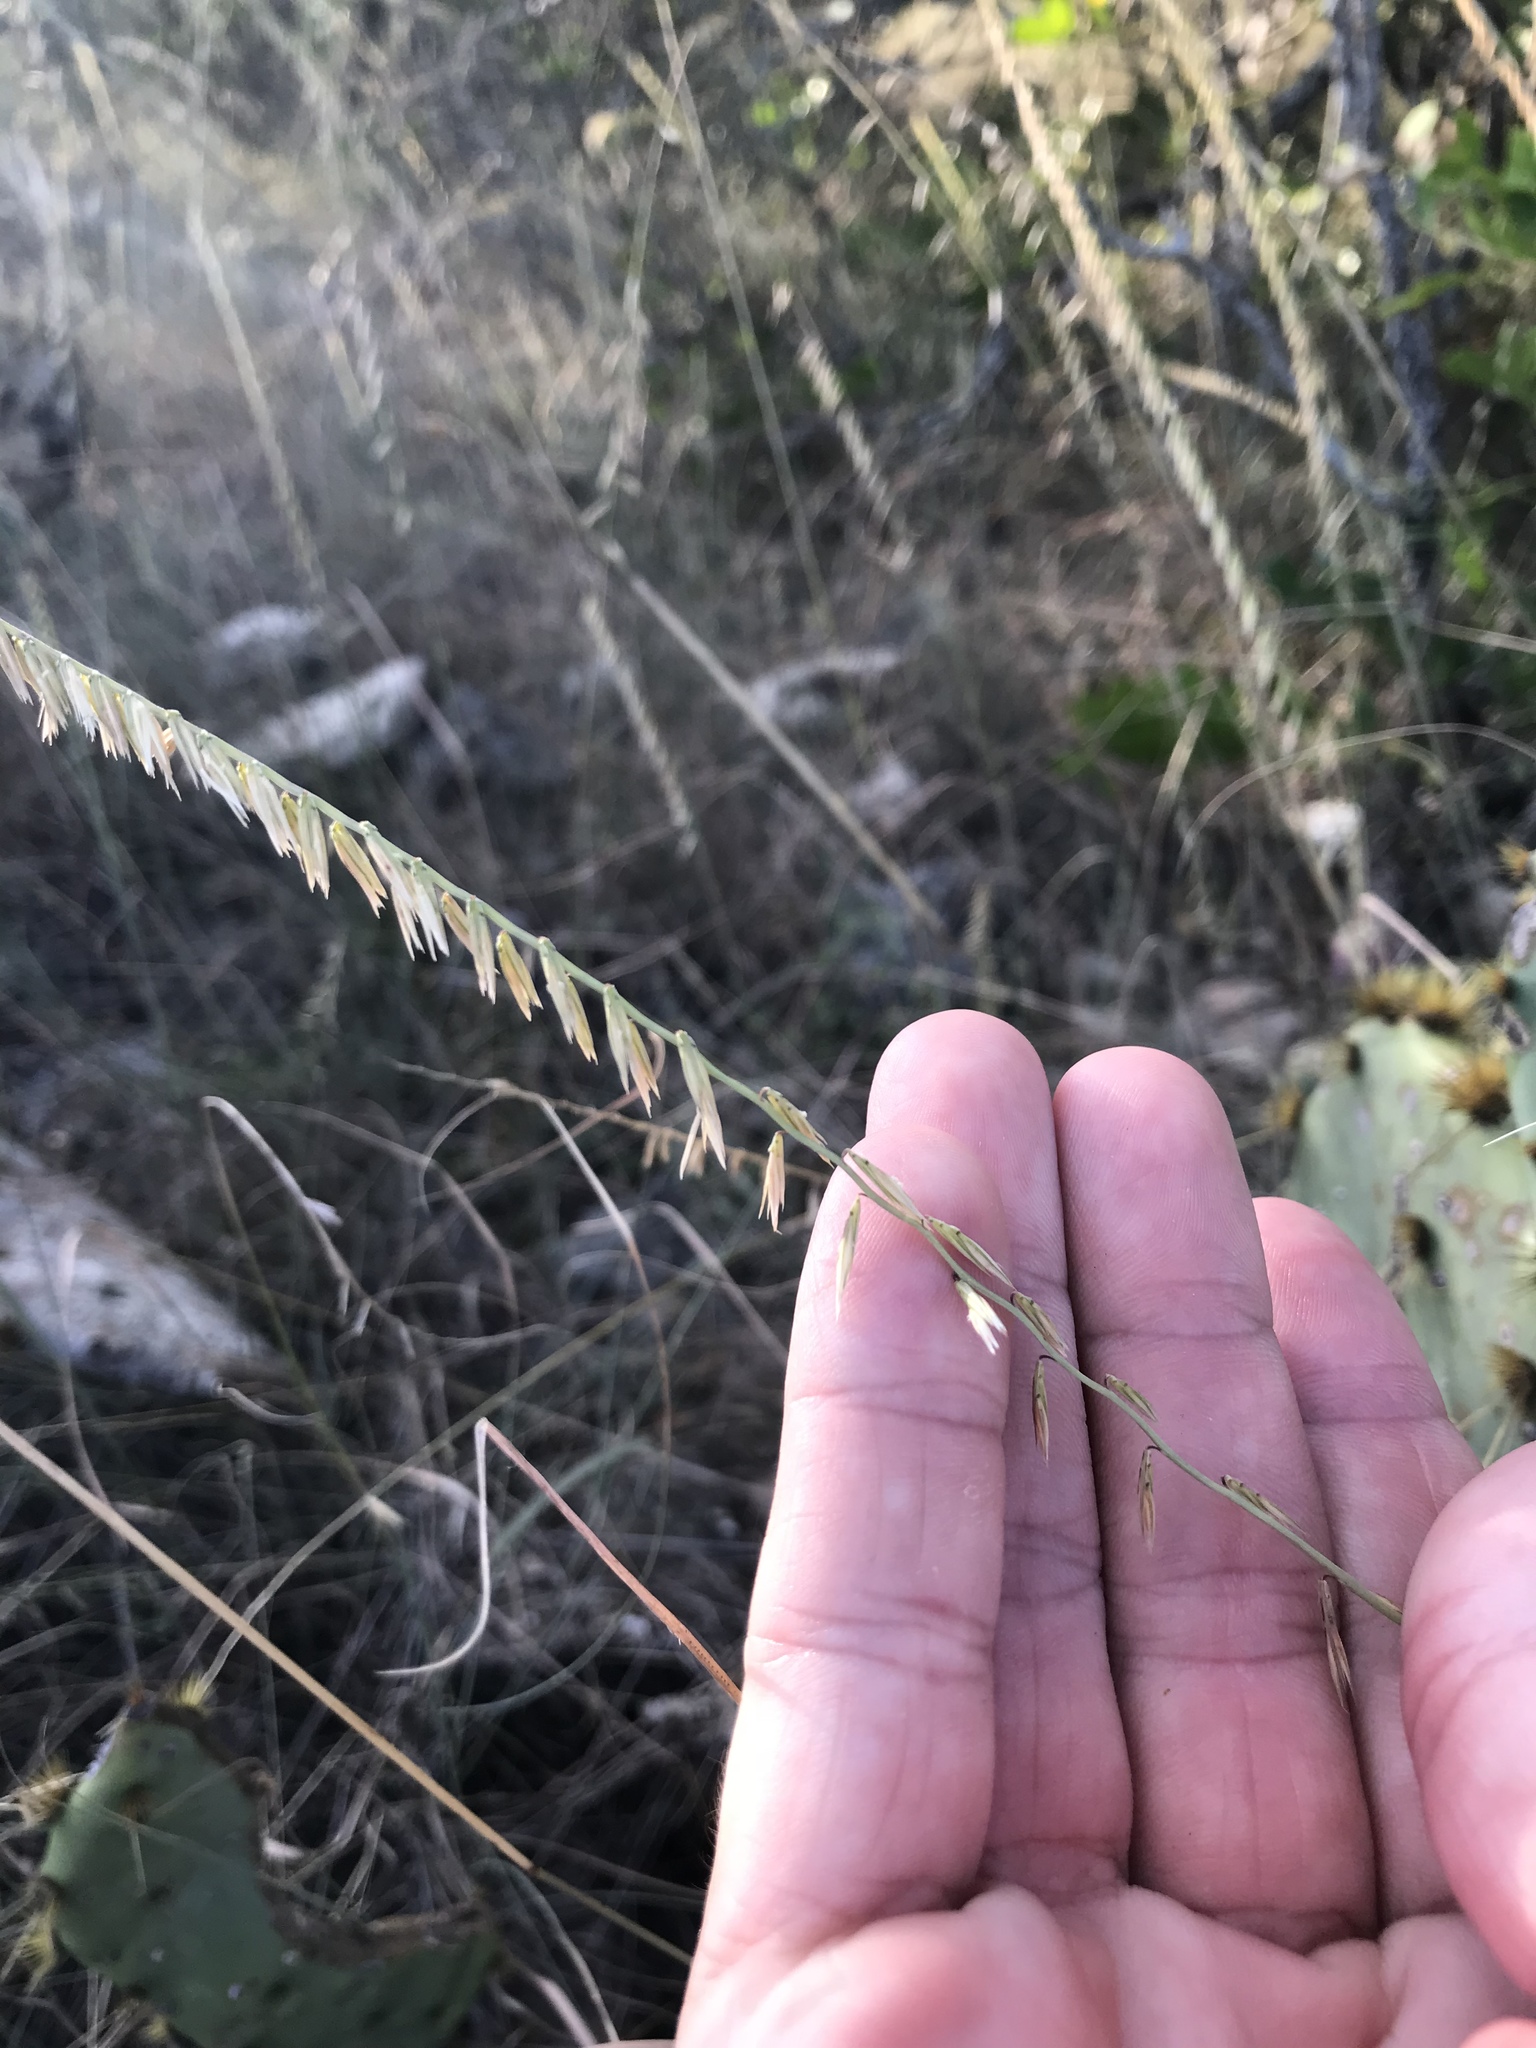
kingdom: Plantae
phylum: Tracheophyta
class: Liliopsida
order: Poales
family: Poaceae
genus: Bouteloua
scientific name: Bouteloua curtipendula
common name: Side-oats grama
